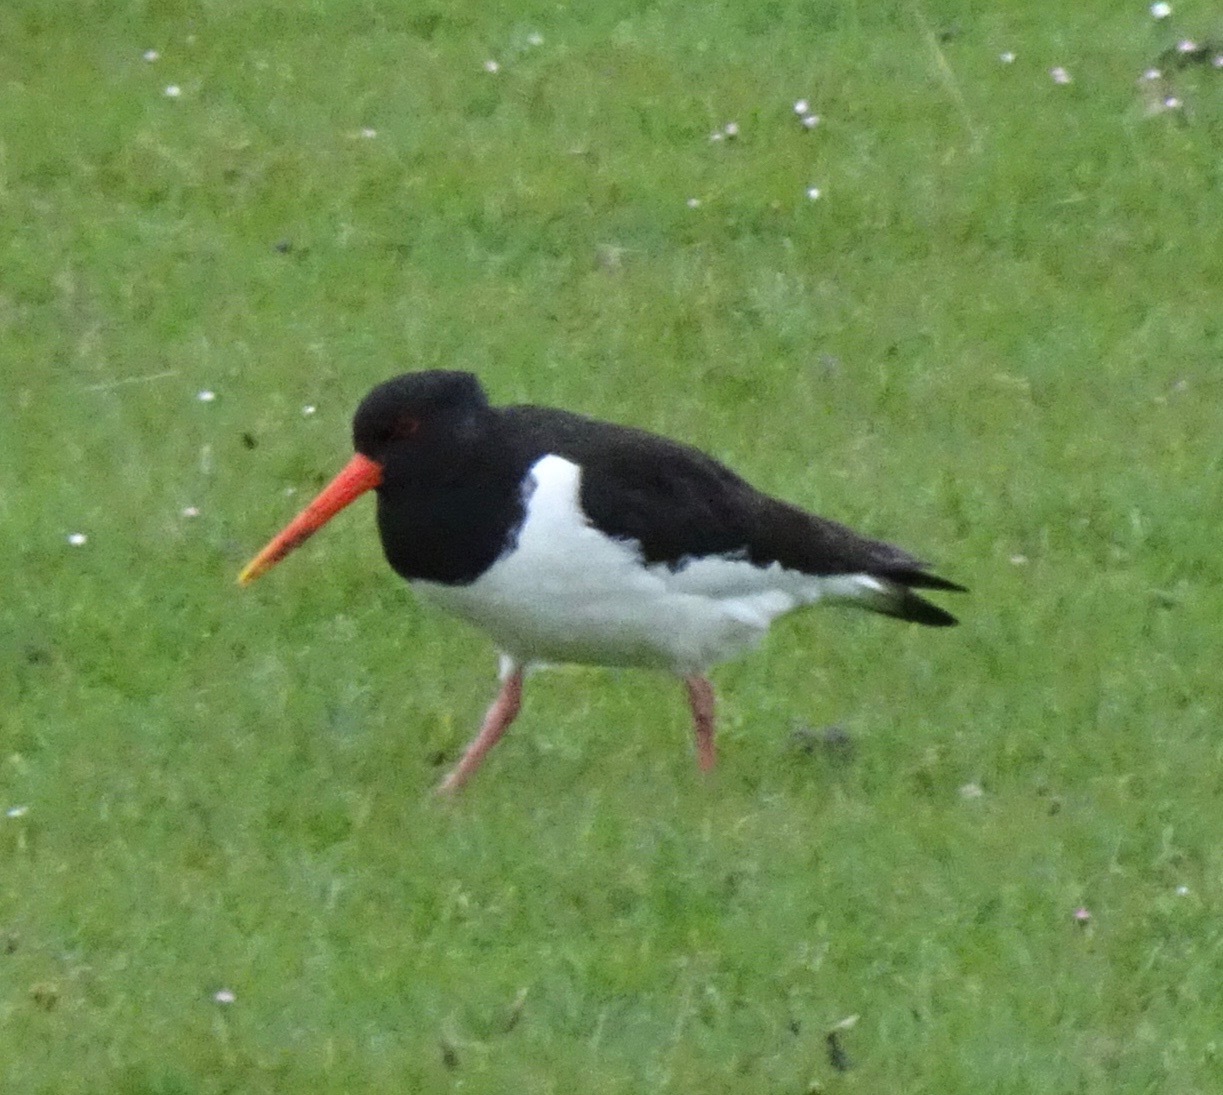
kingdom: Animalia
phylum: Chordata
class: Aves
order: Charadriiformes
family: Haematopodidae
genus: Haematopus
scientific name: Haematopus ostralegus
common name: Eurasian oystercatcher
